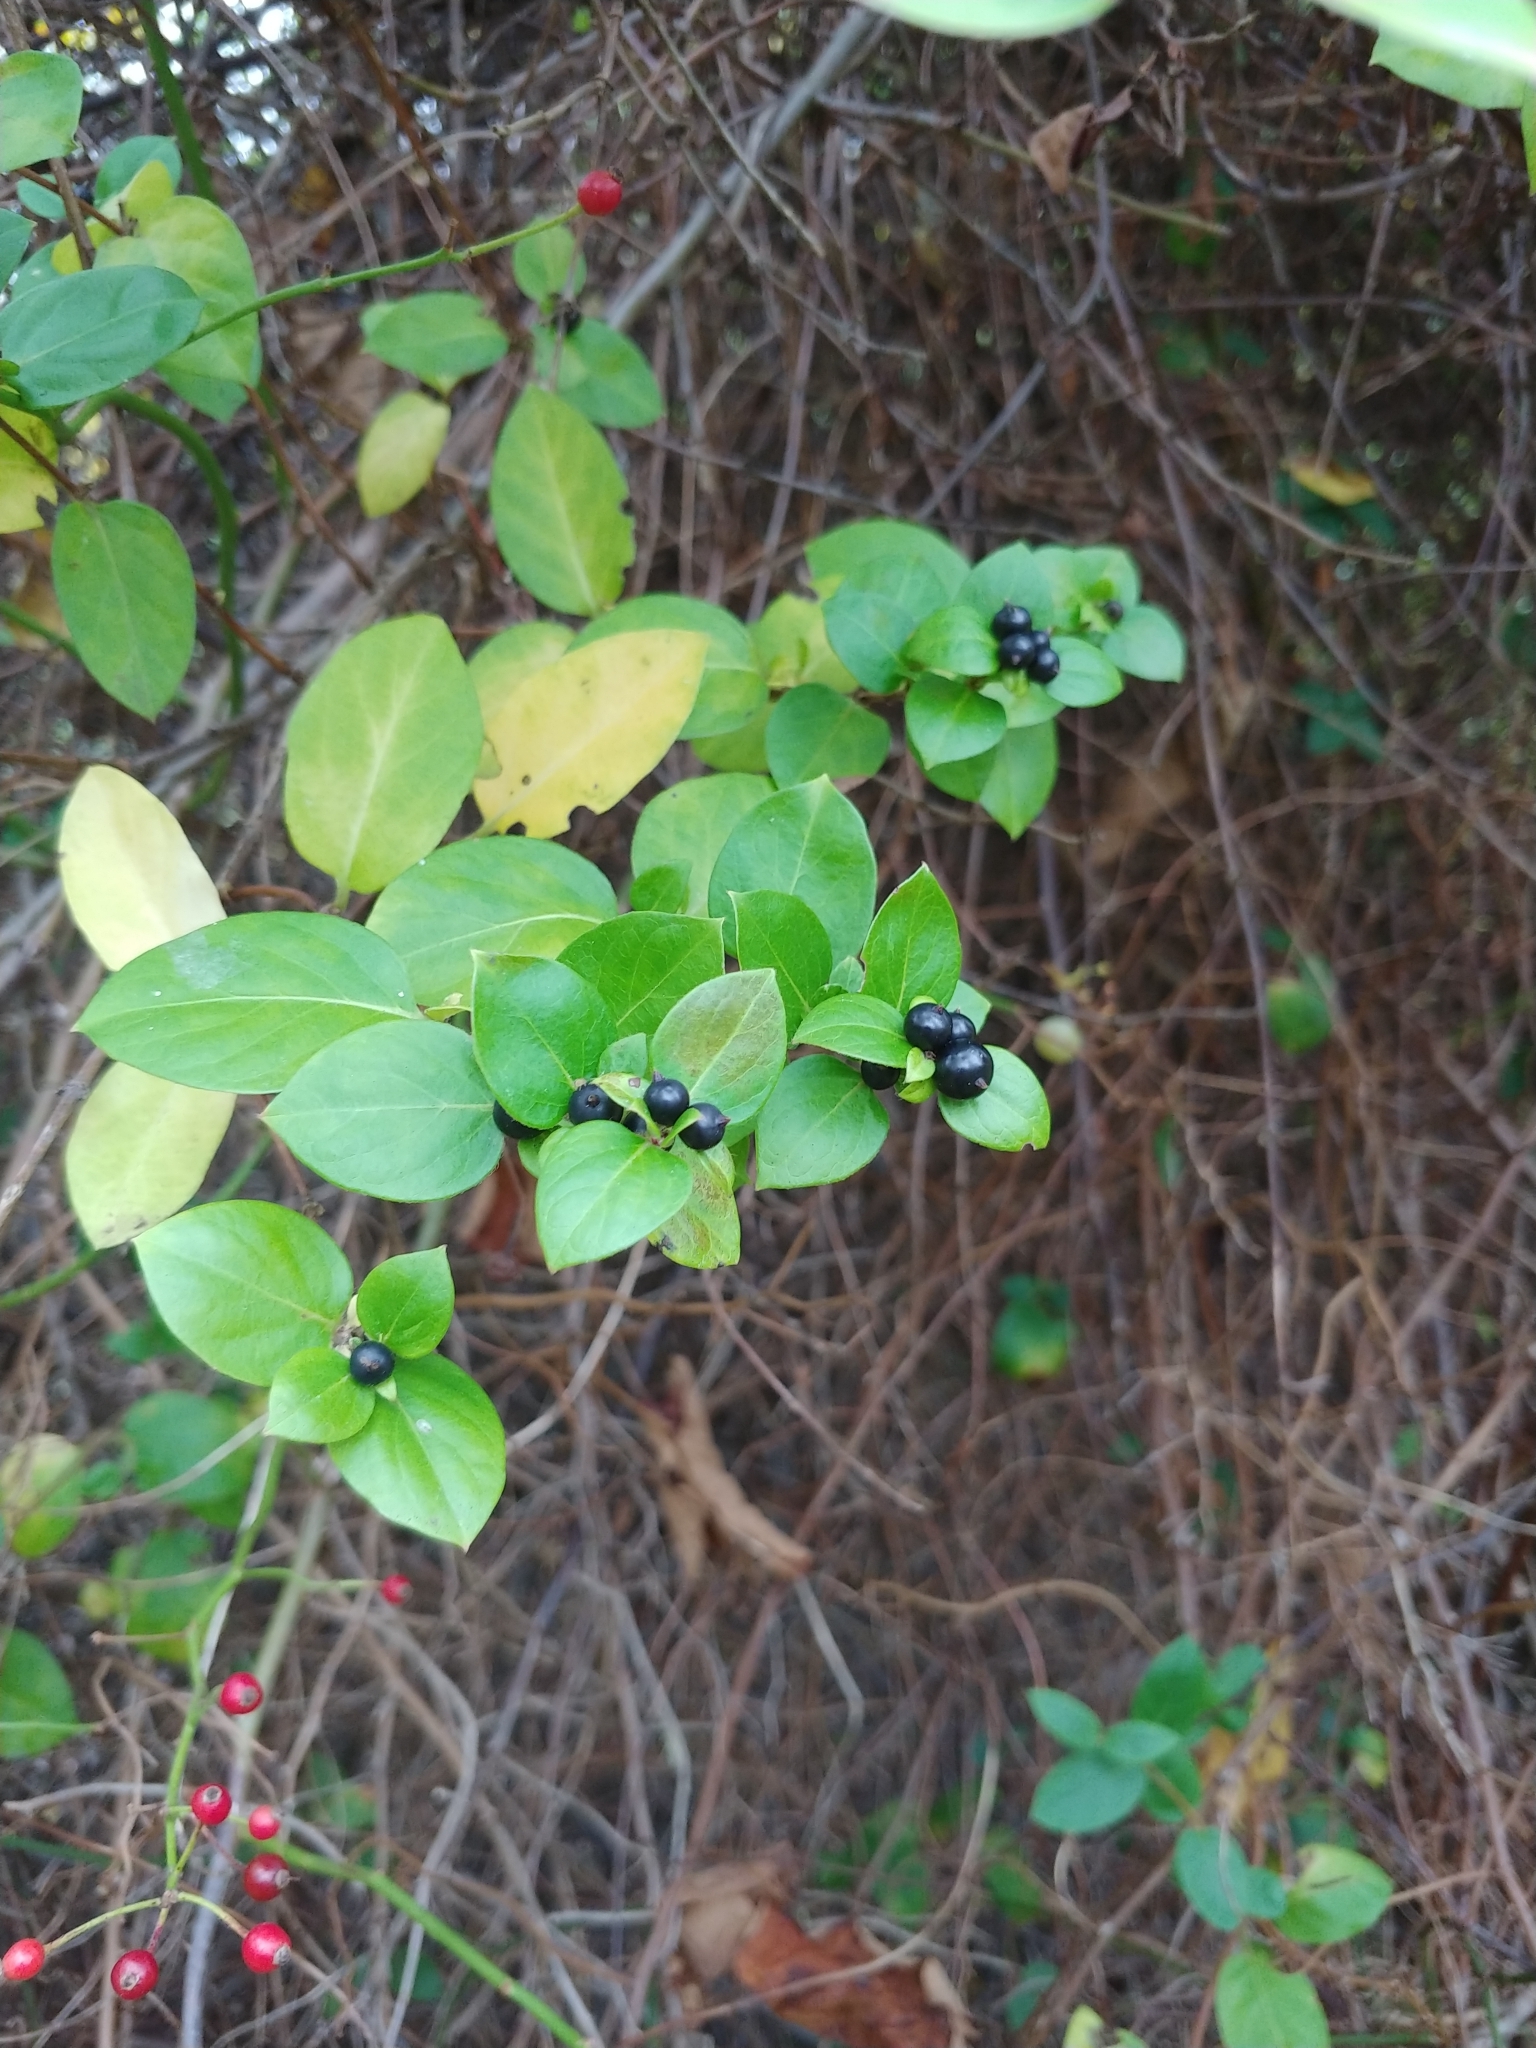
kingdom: Plantae
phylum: Tracheophyta
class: Magnoliopsida
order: Dipsacales
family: Caprifoliaceae
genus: Lonicera
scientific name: Lonicera japonica
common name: Japanese honeysuckle
